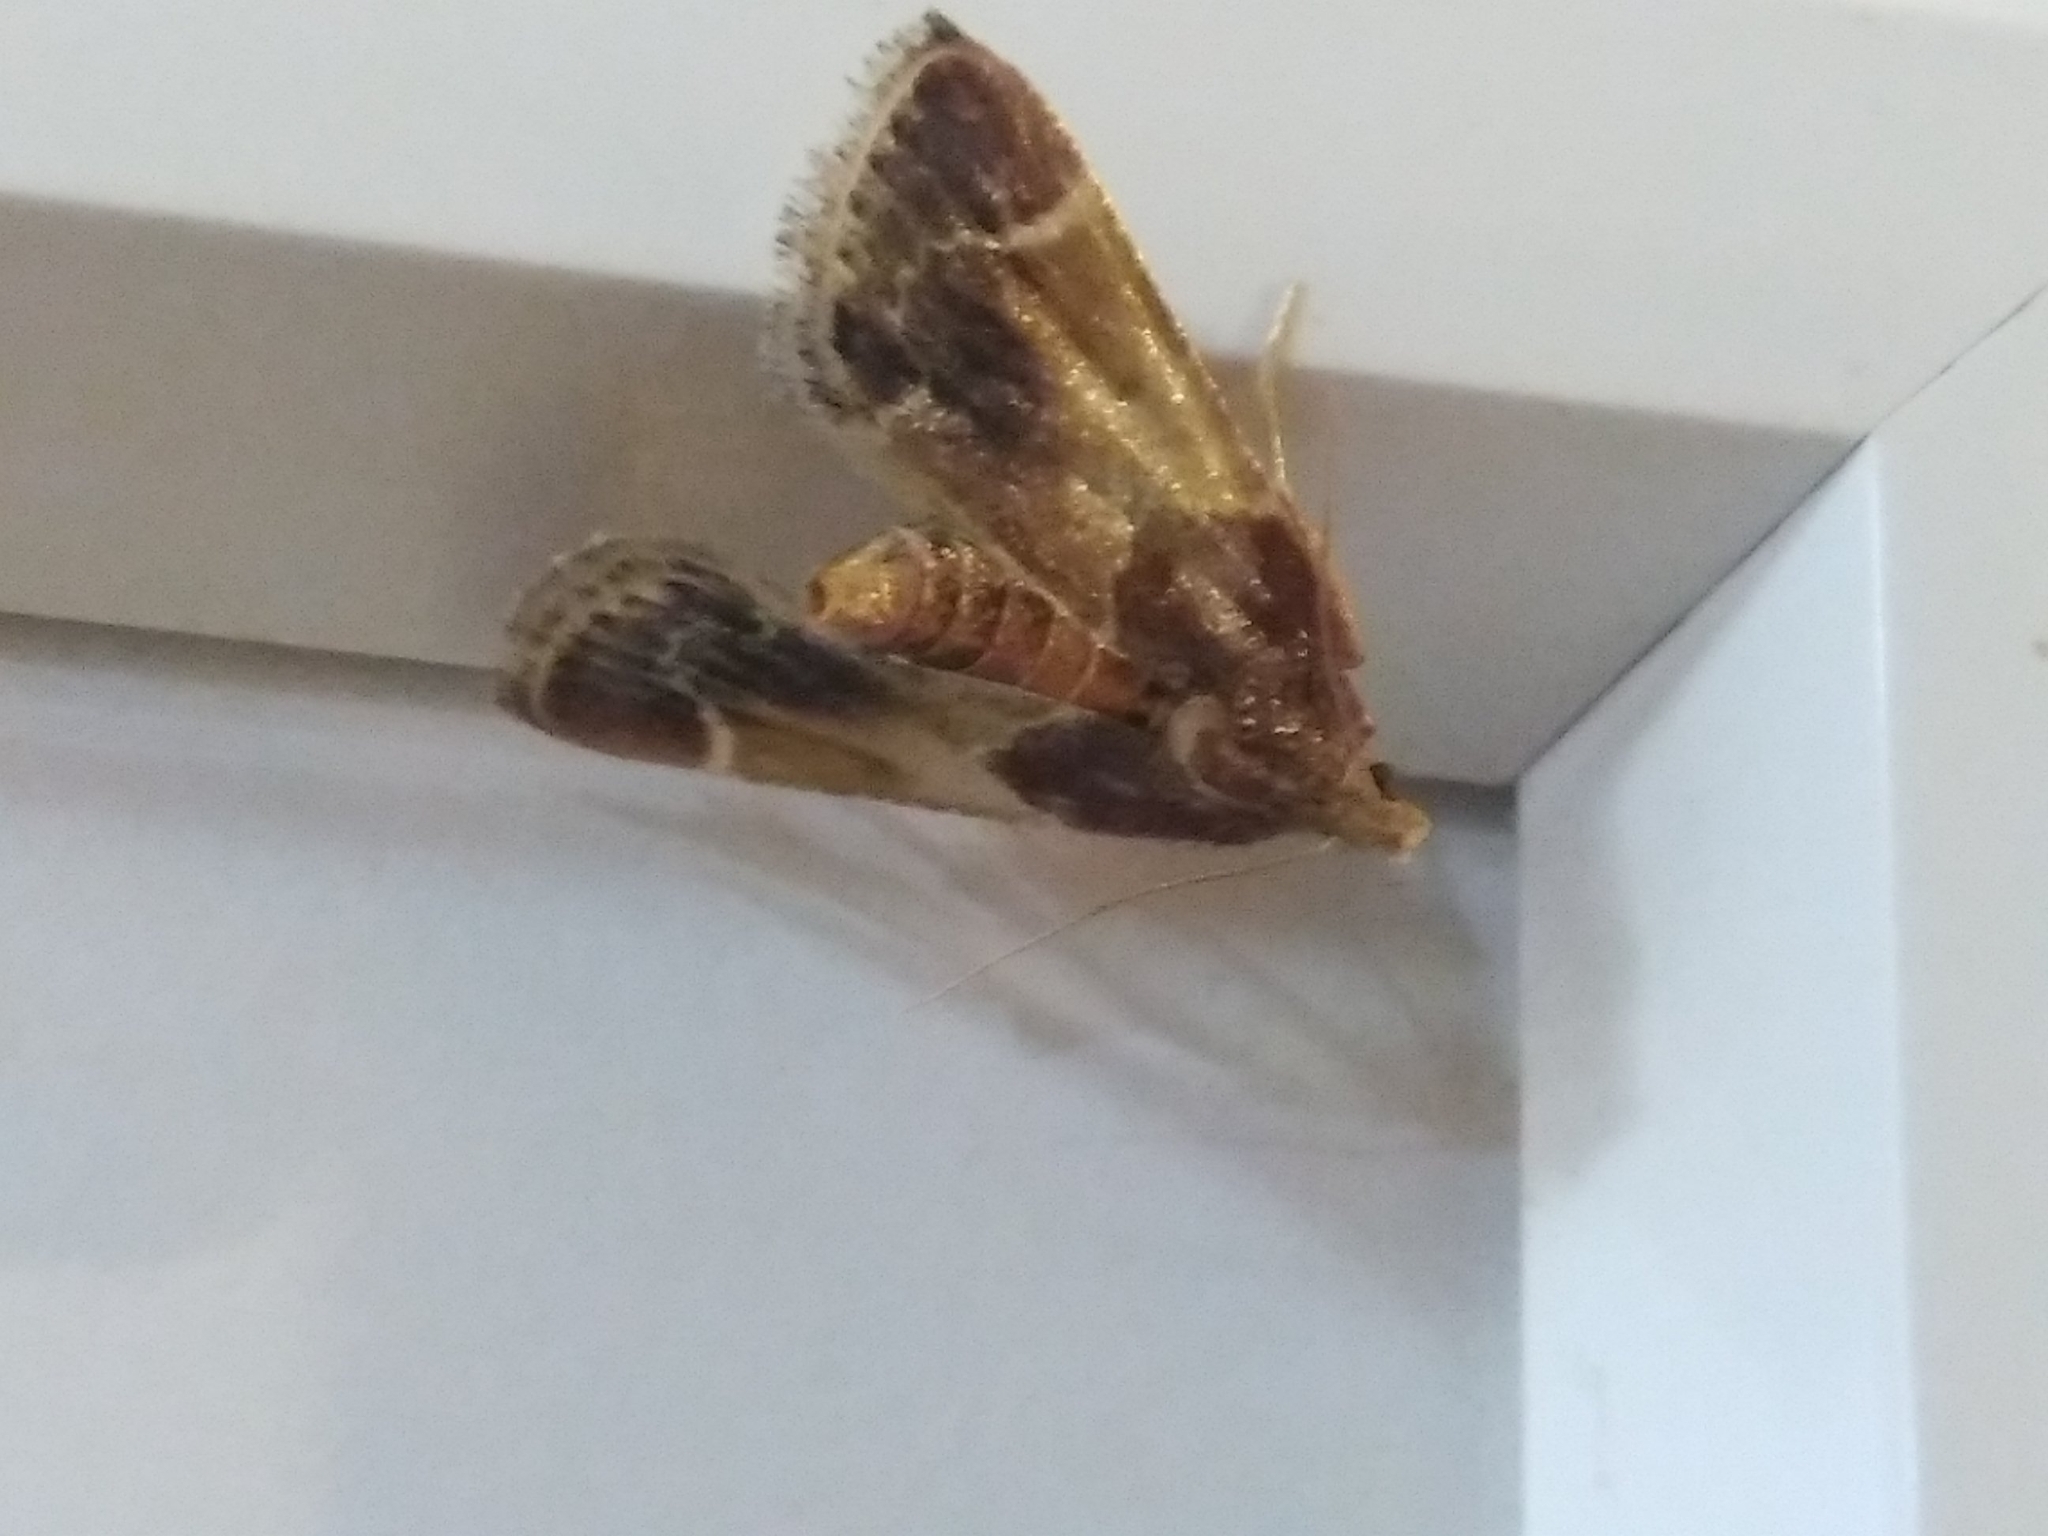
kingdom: Animalia
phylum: Arthropoda
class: Insecta
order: Lepidoptera
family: Pyralidae
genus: Pyralis
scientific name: Pyralis farinalis
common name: Meal moth
